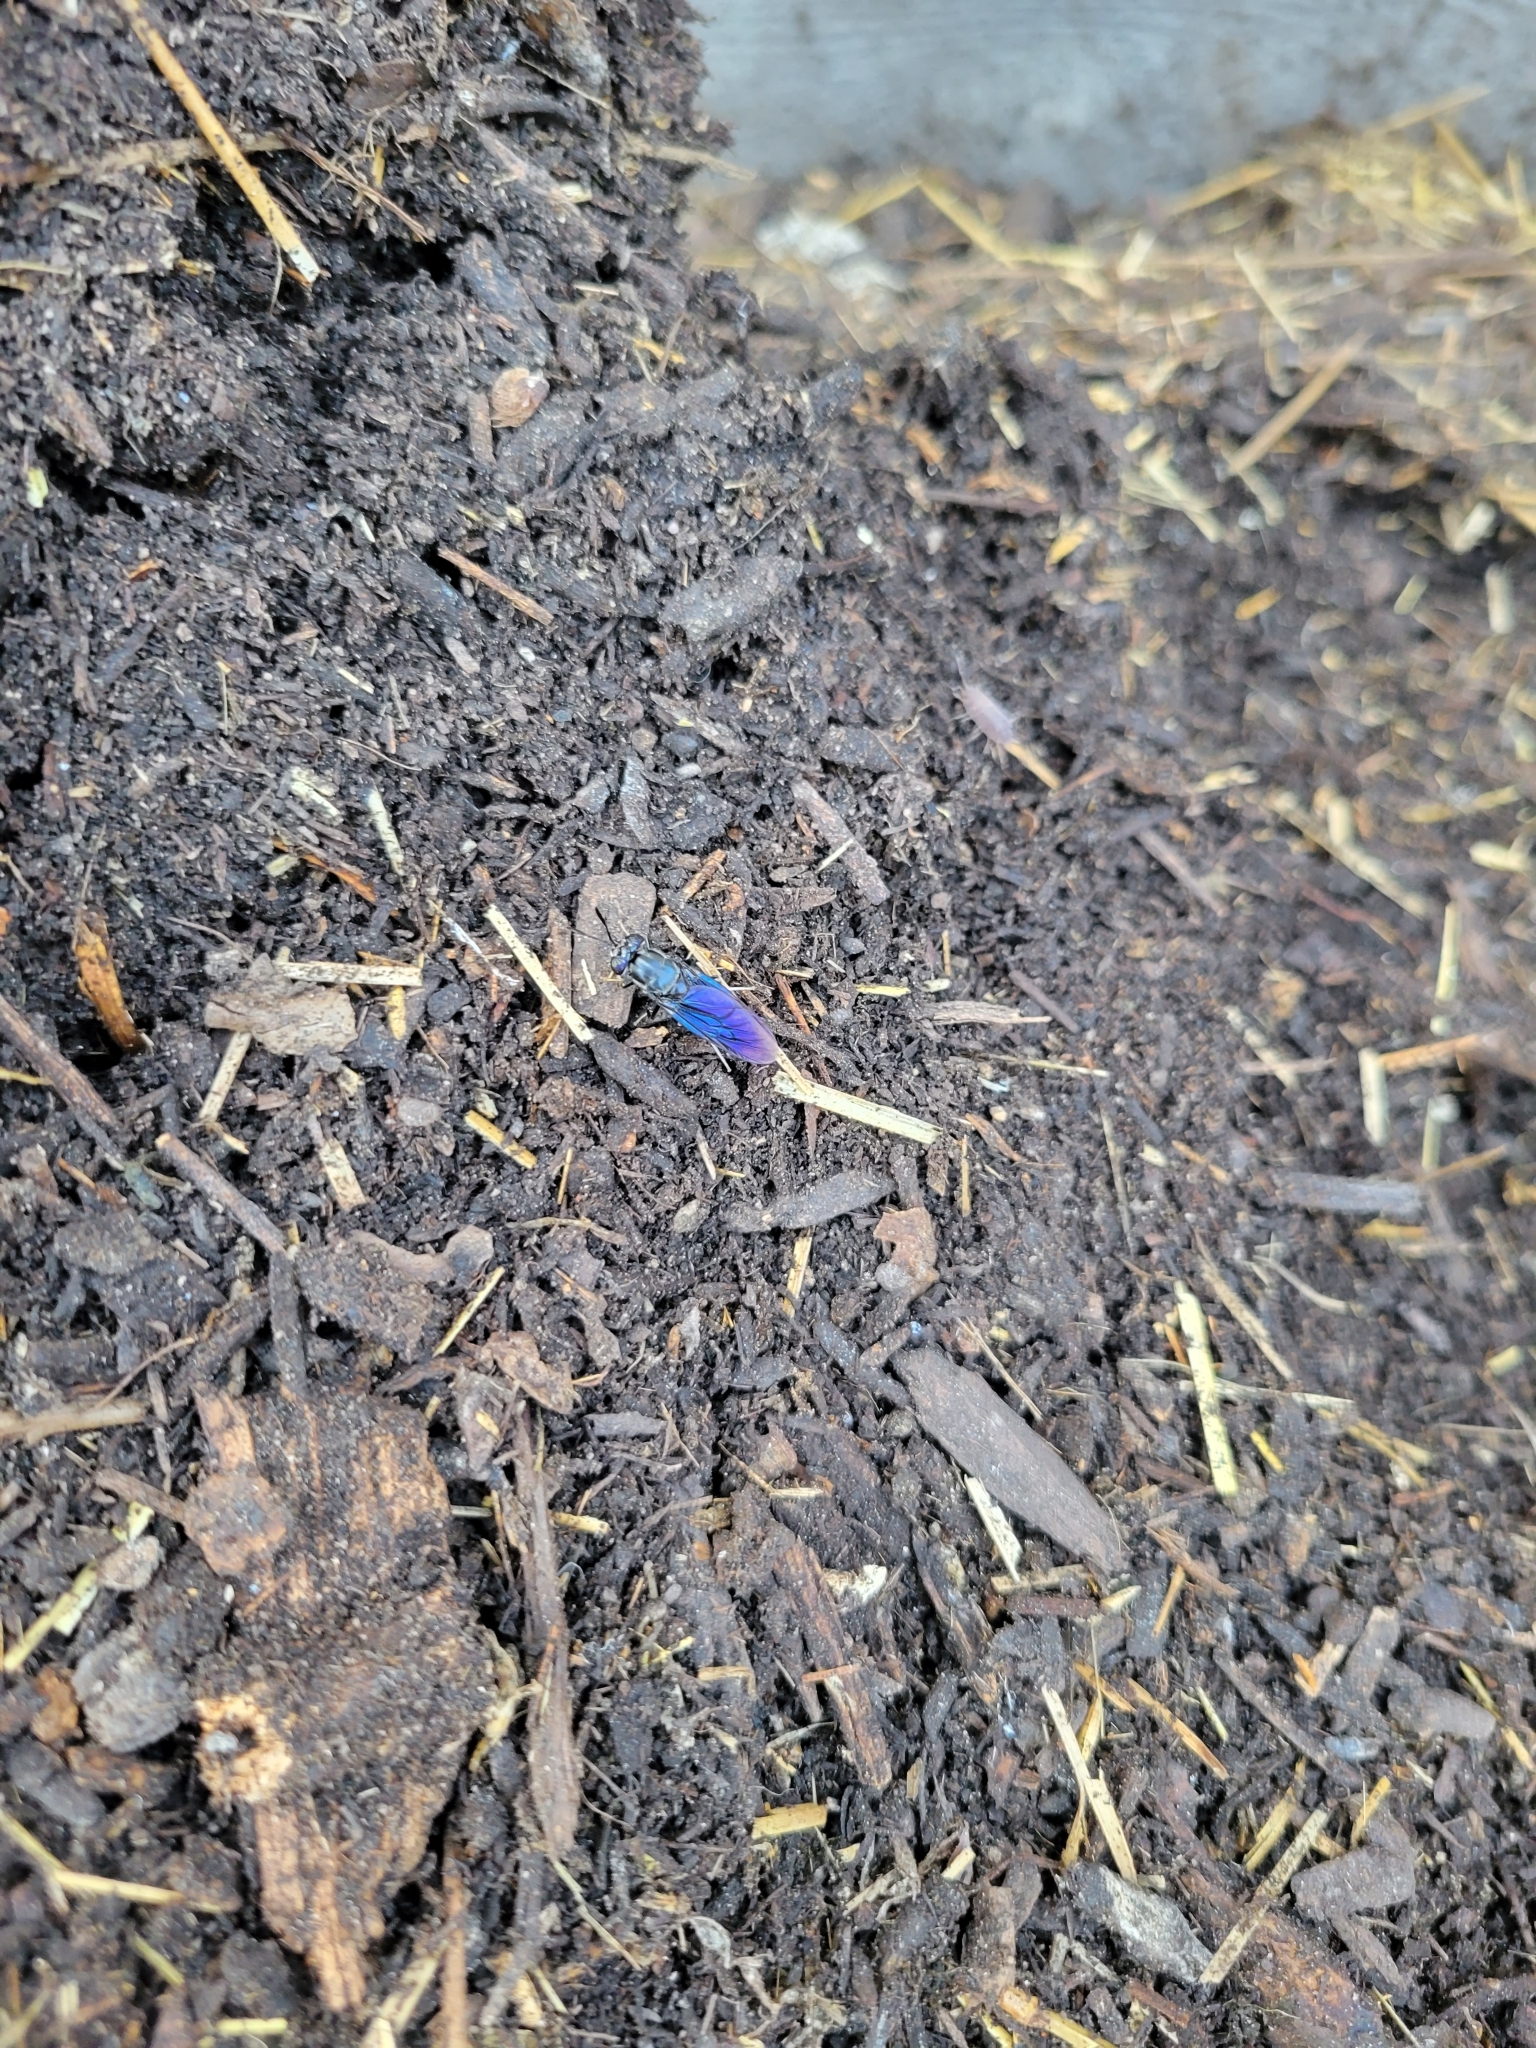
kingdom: Animalia
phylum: Arthropoda
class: Insecta
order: Diptera
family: Stratiomyidae
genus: Hermetia
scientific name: Hermetia illucens
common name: Black soldier fly
